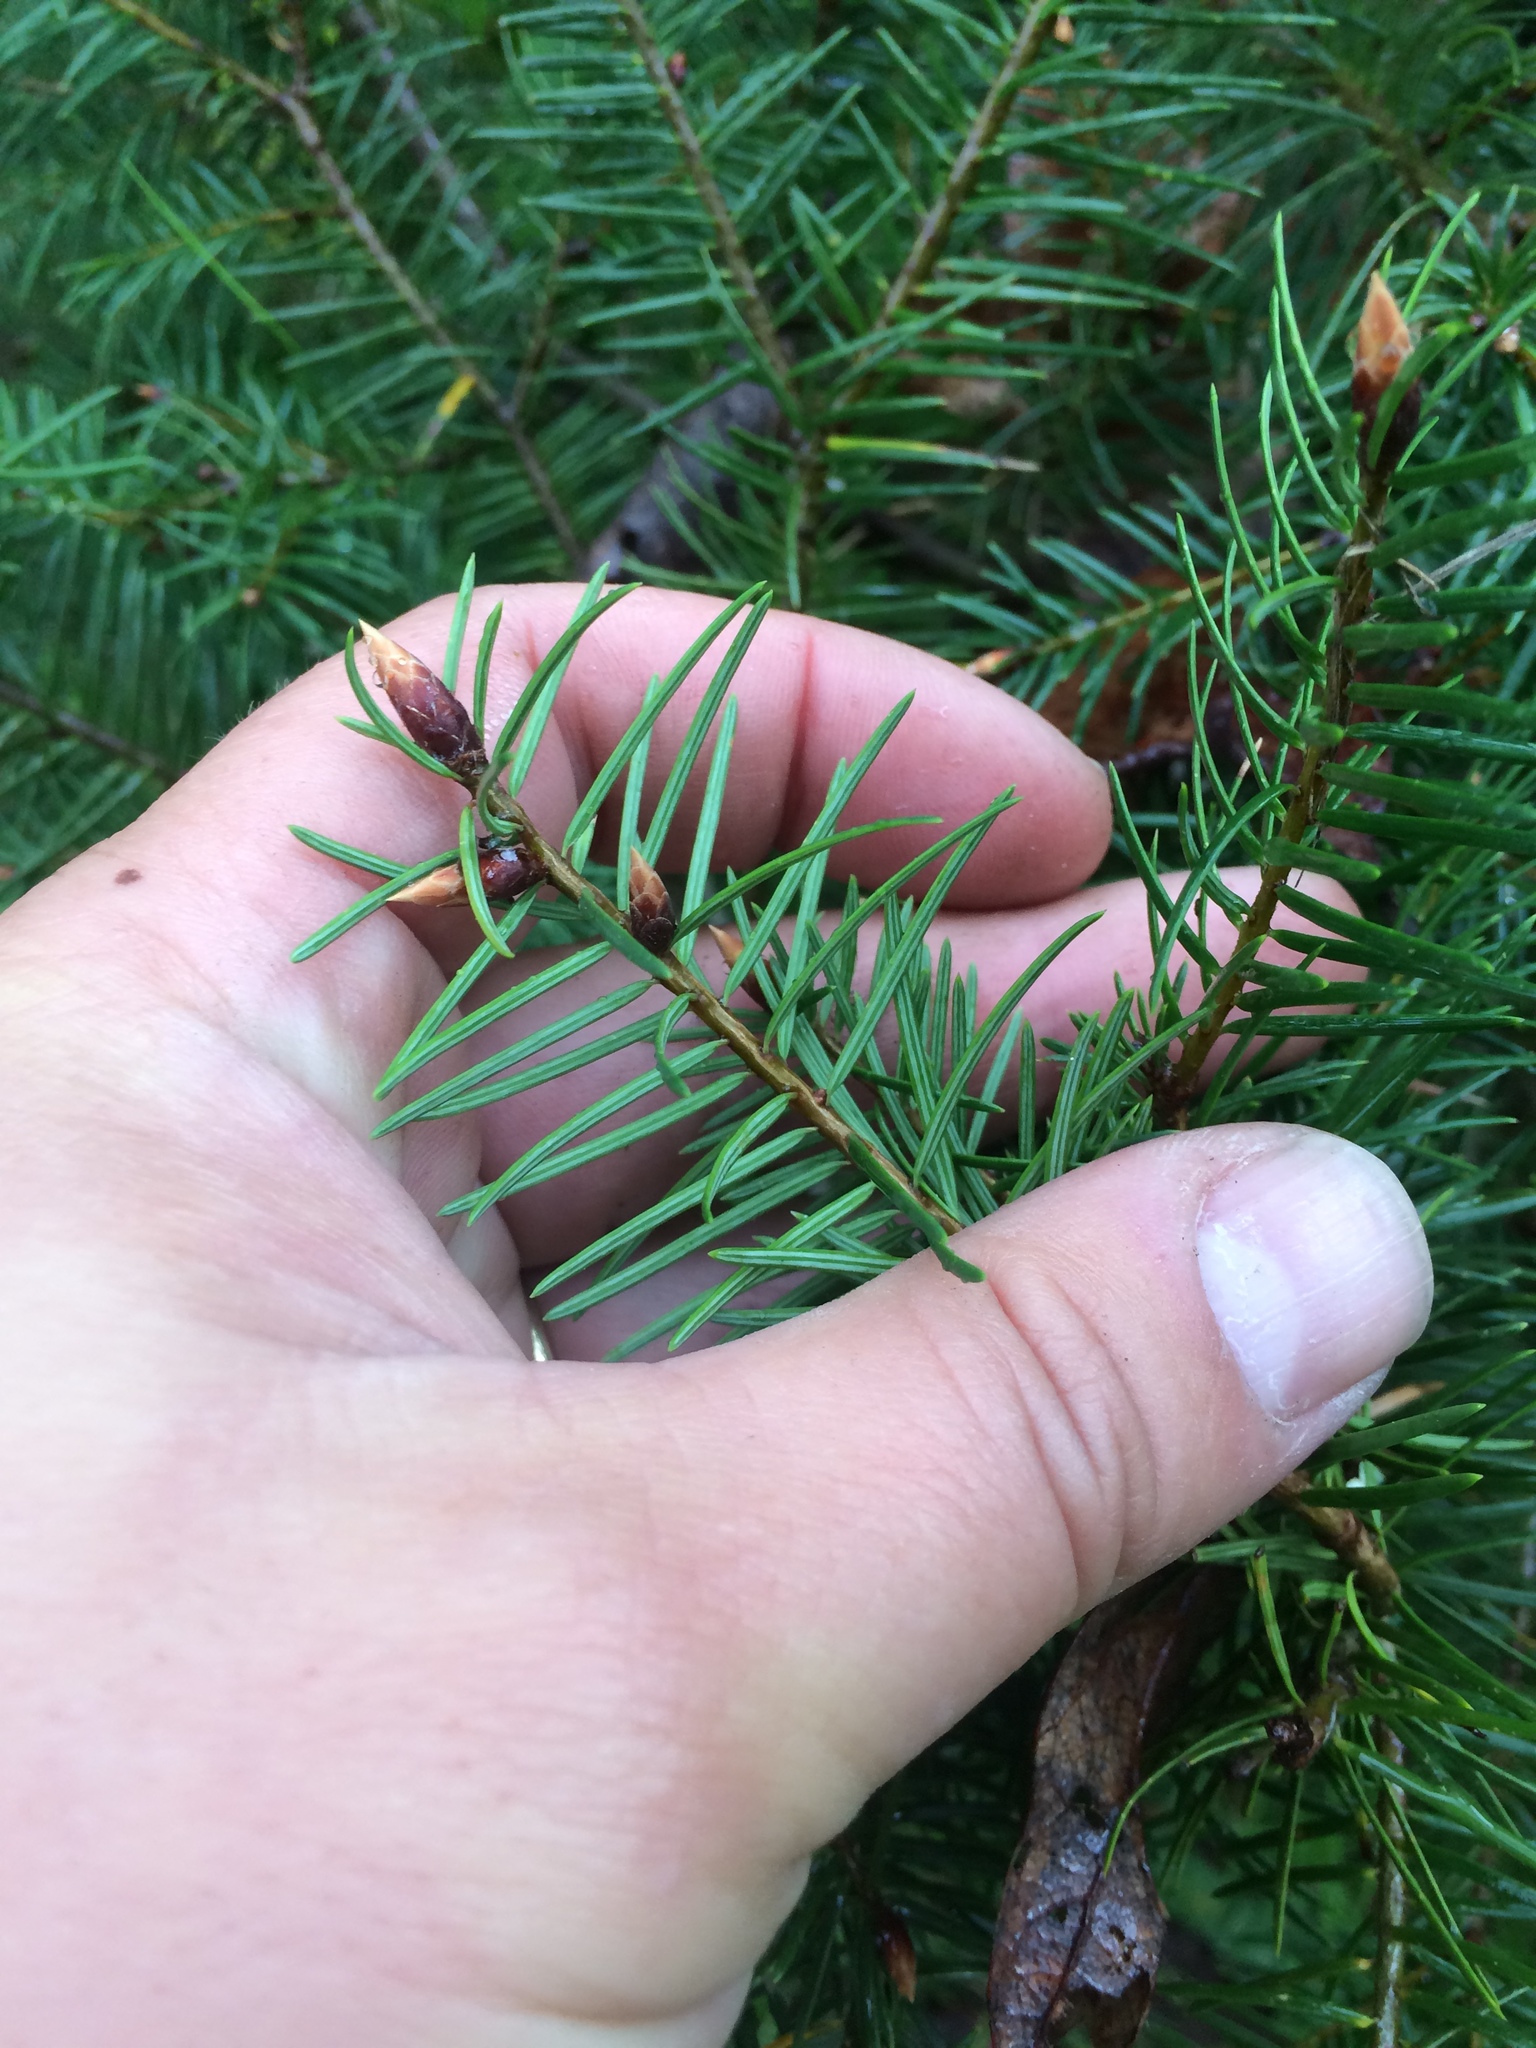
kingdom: Plantae
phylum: Tracheophyta
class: Pinopsida
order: Pinales
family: Pinaceae
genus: Pseudotsuga
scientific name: Pseudotsuga menziesii
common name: Douglas fir
